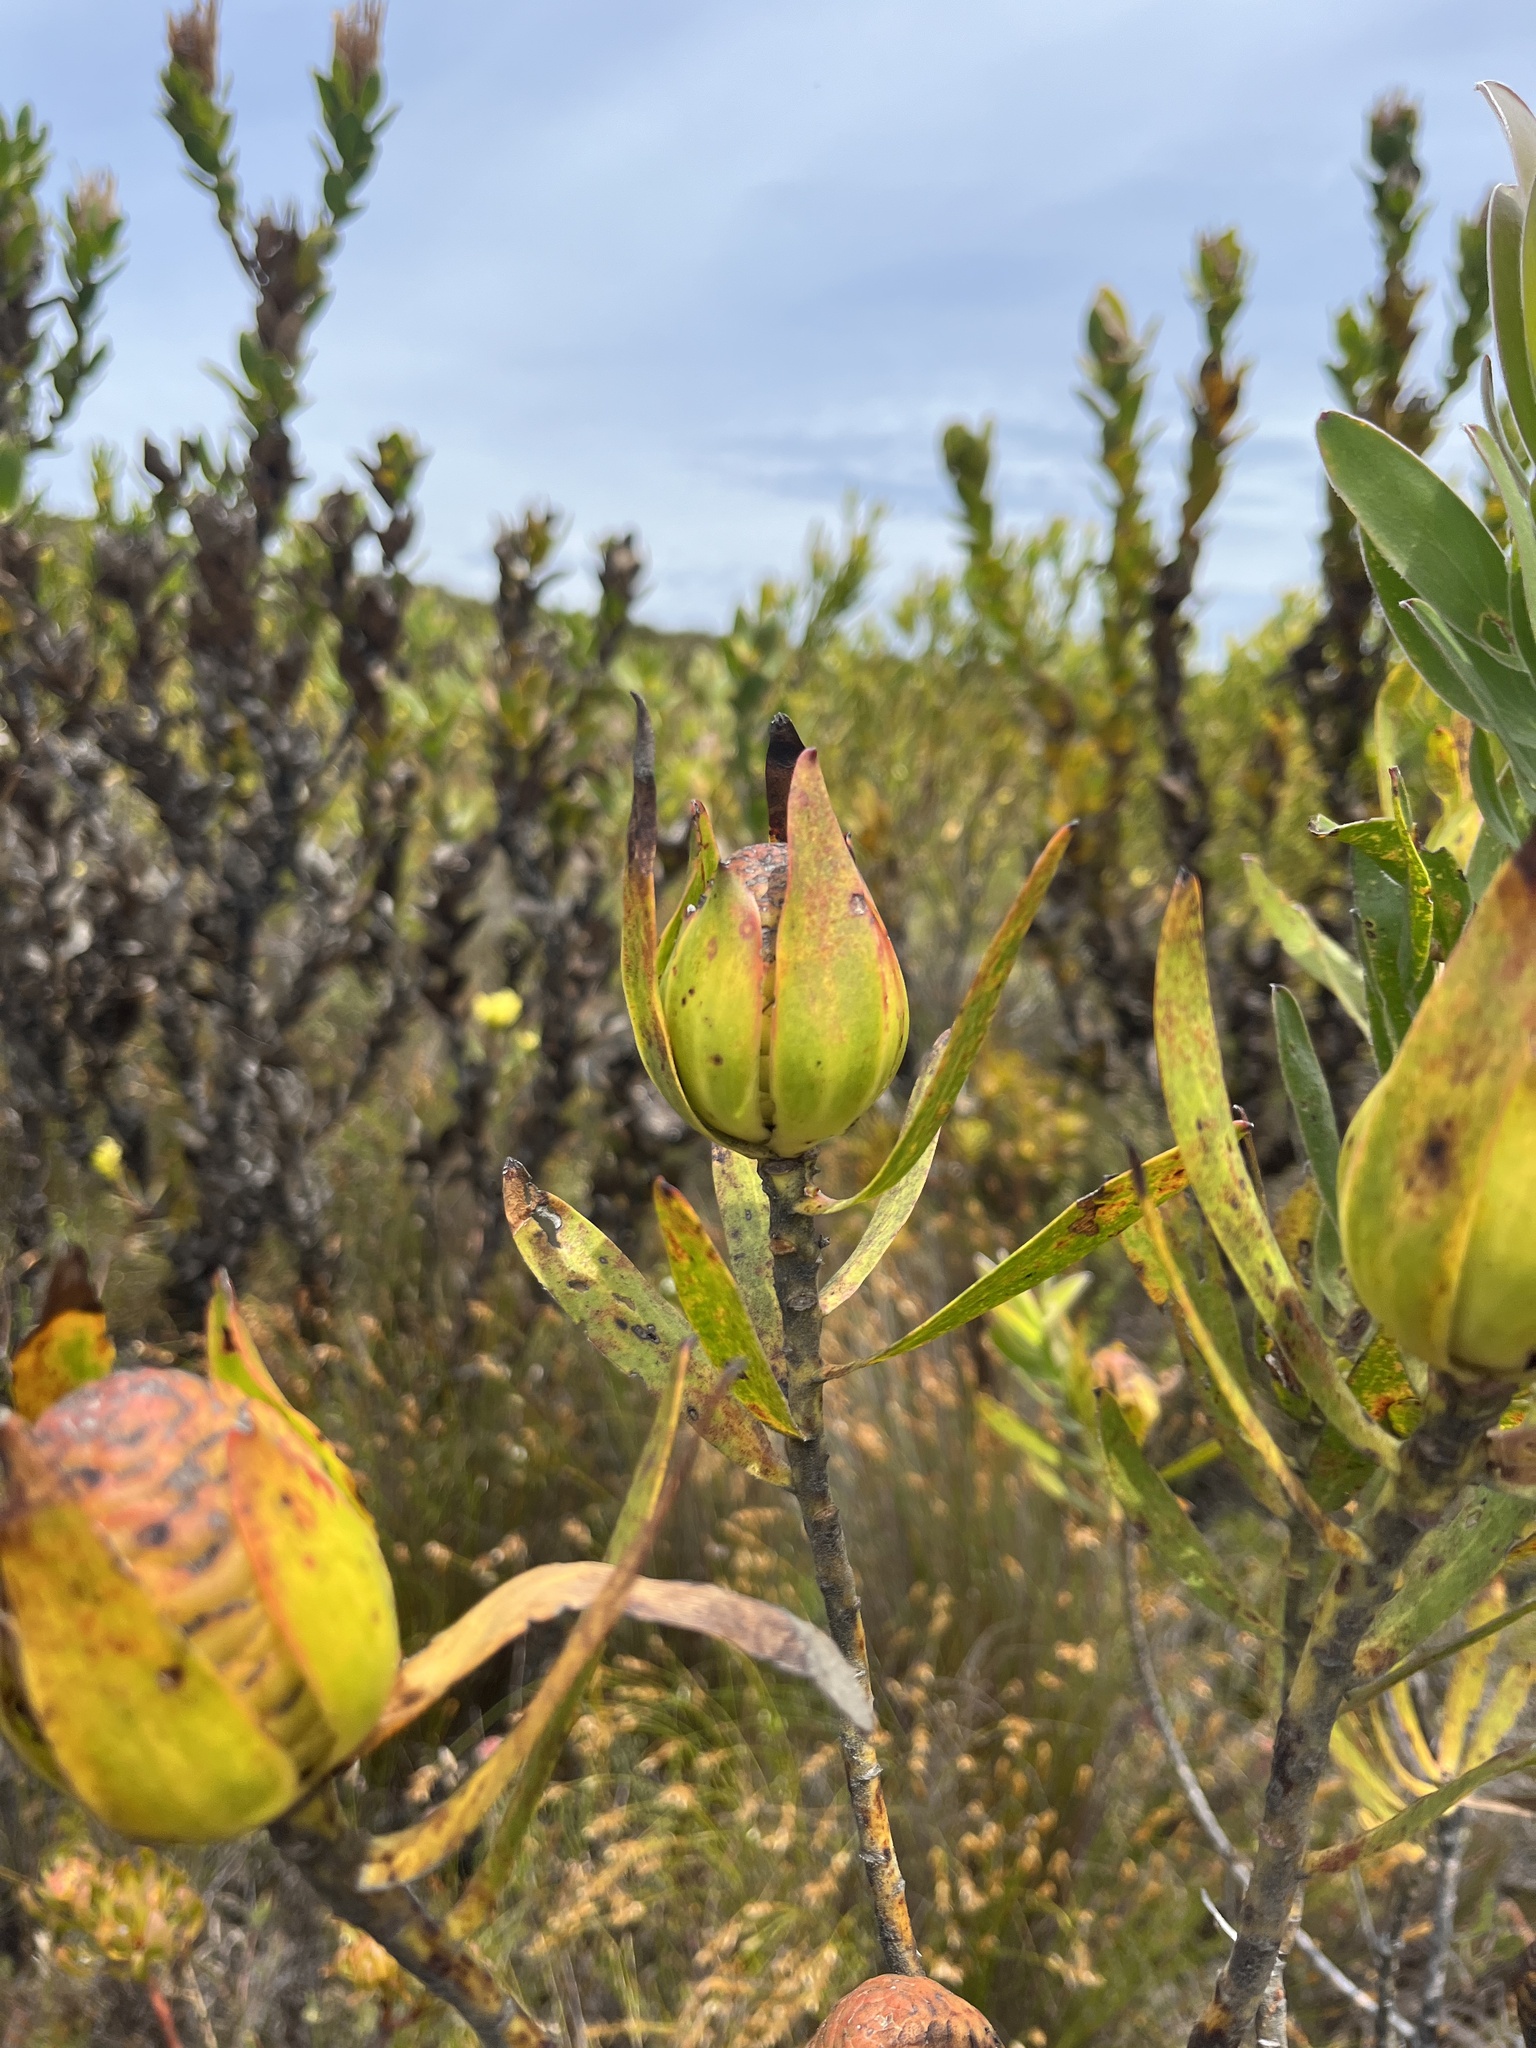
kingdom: Plantae
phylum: Tracheophyta
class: Magnoliopsida
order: Proteales
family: Proteaceae
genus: Leucadendron
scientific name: Leucadendron laureolum
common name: Golden sunshinebush
